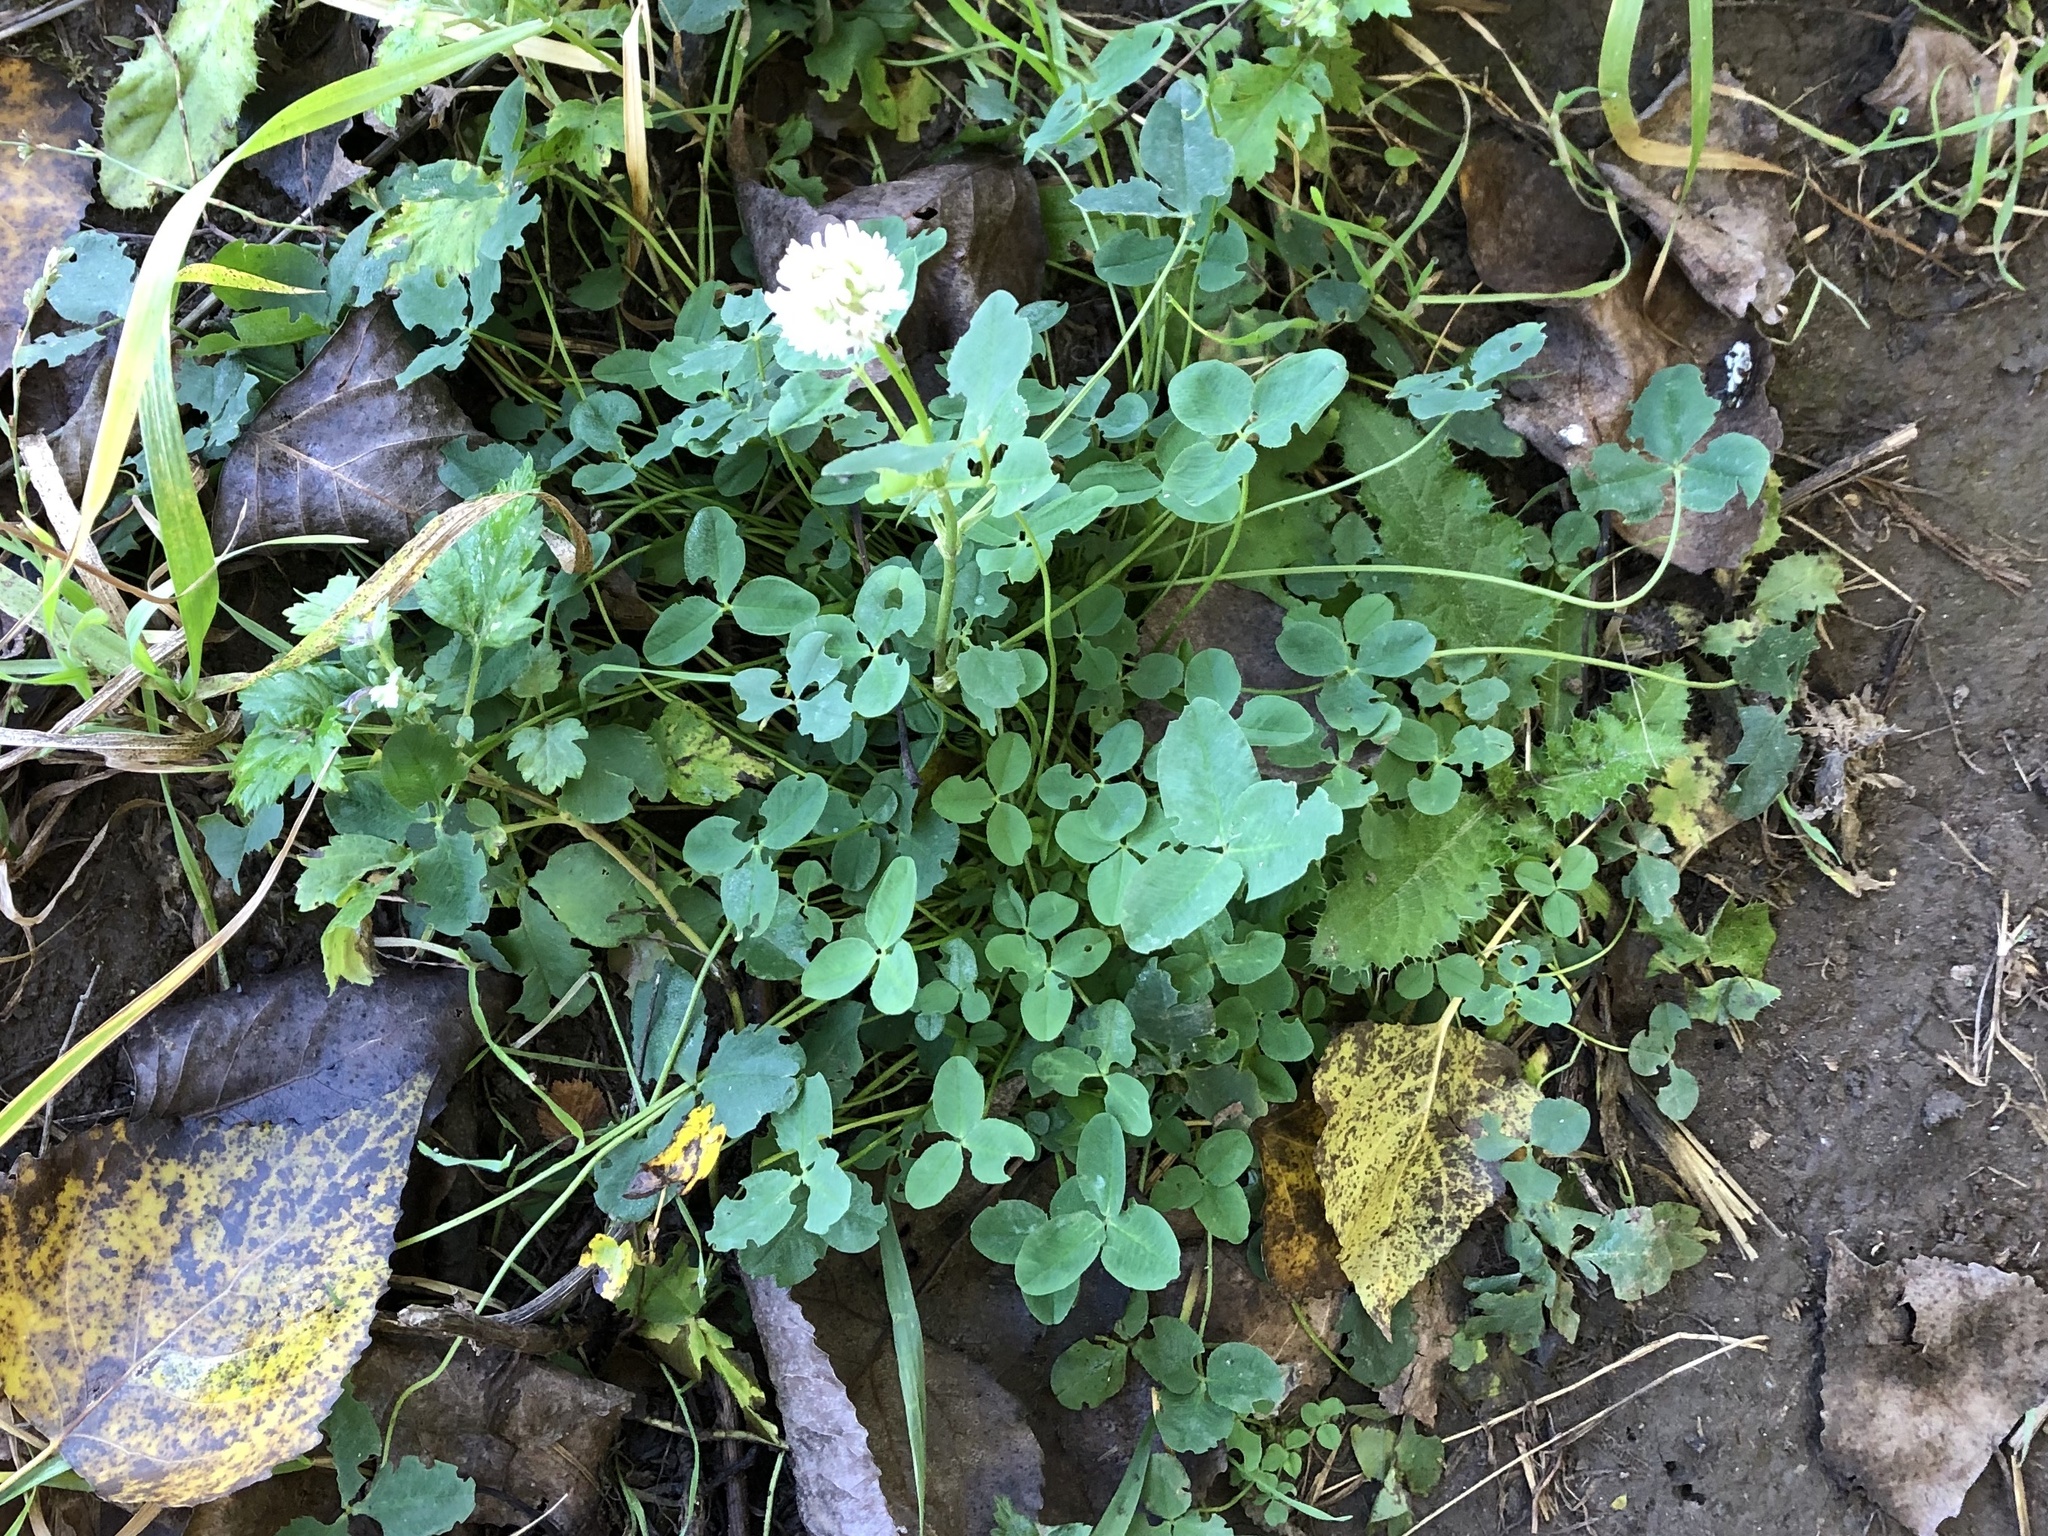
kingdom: Plantae
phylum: Tracheophyta
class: Magnoliopsida
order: Fabales
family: Fabaceae
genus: Trifolium
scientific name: Trifolium repens
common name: White clover
